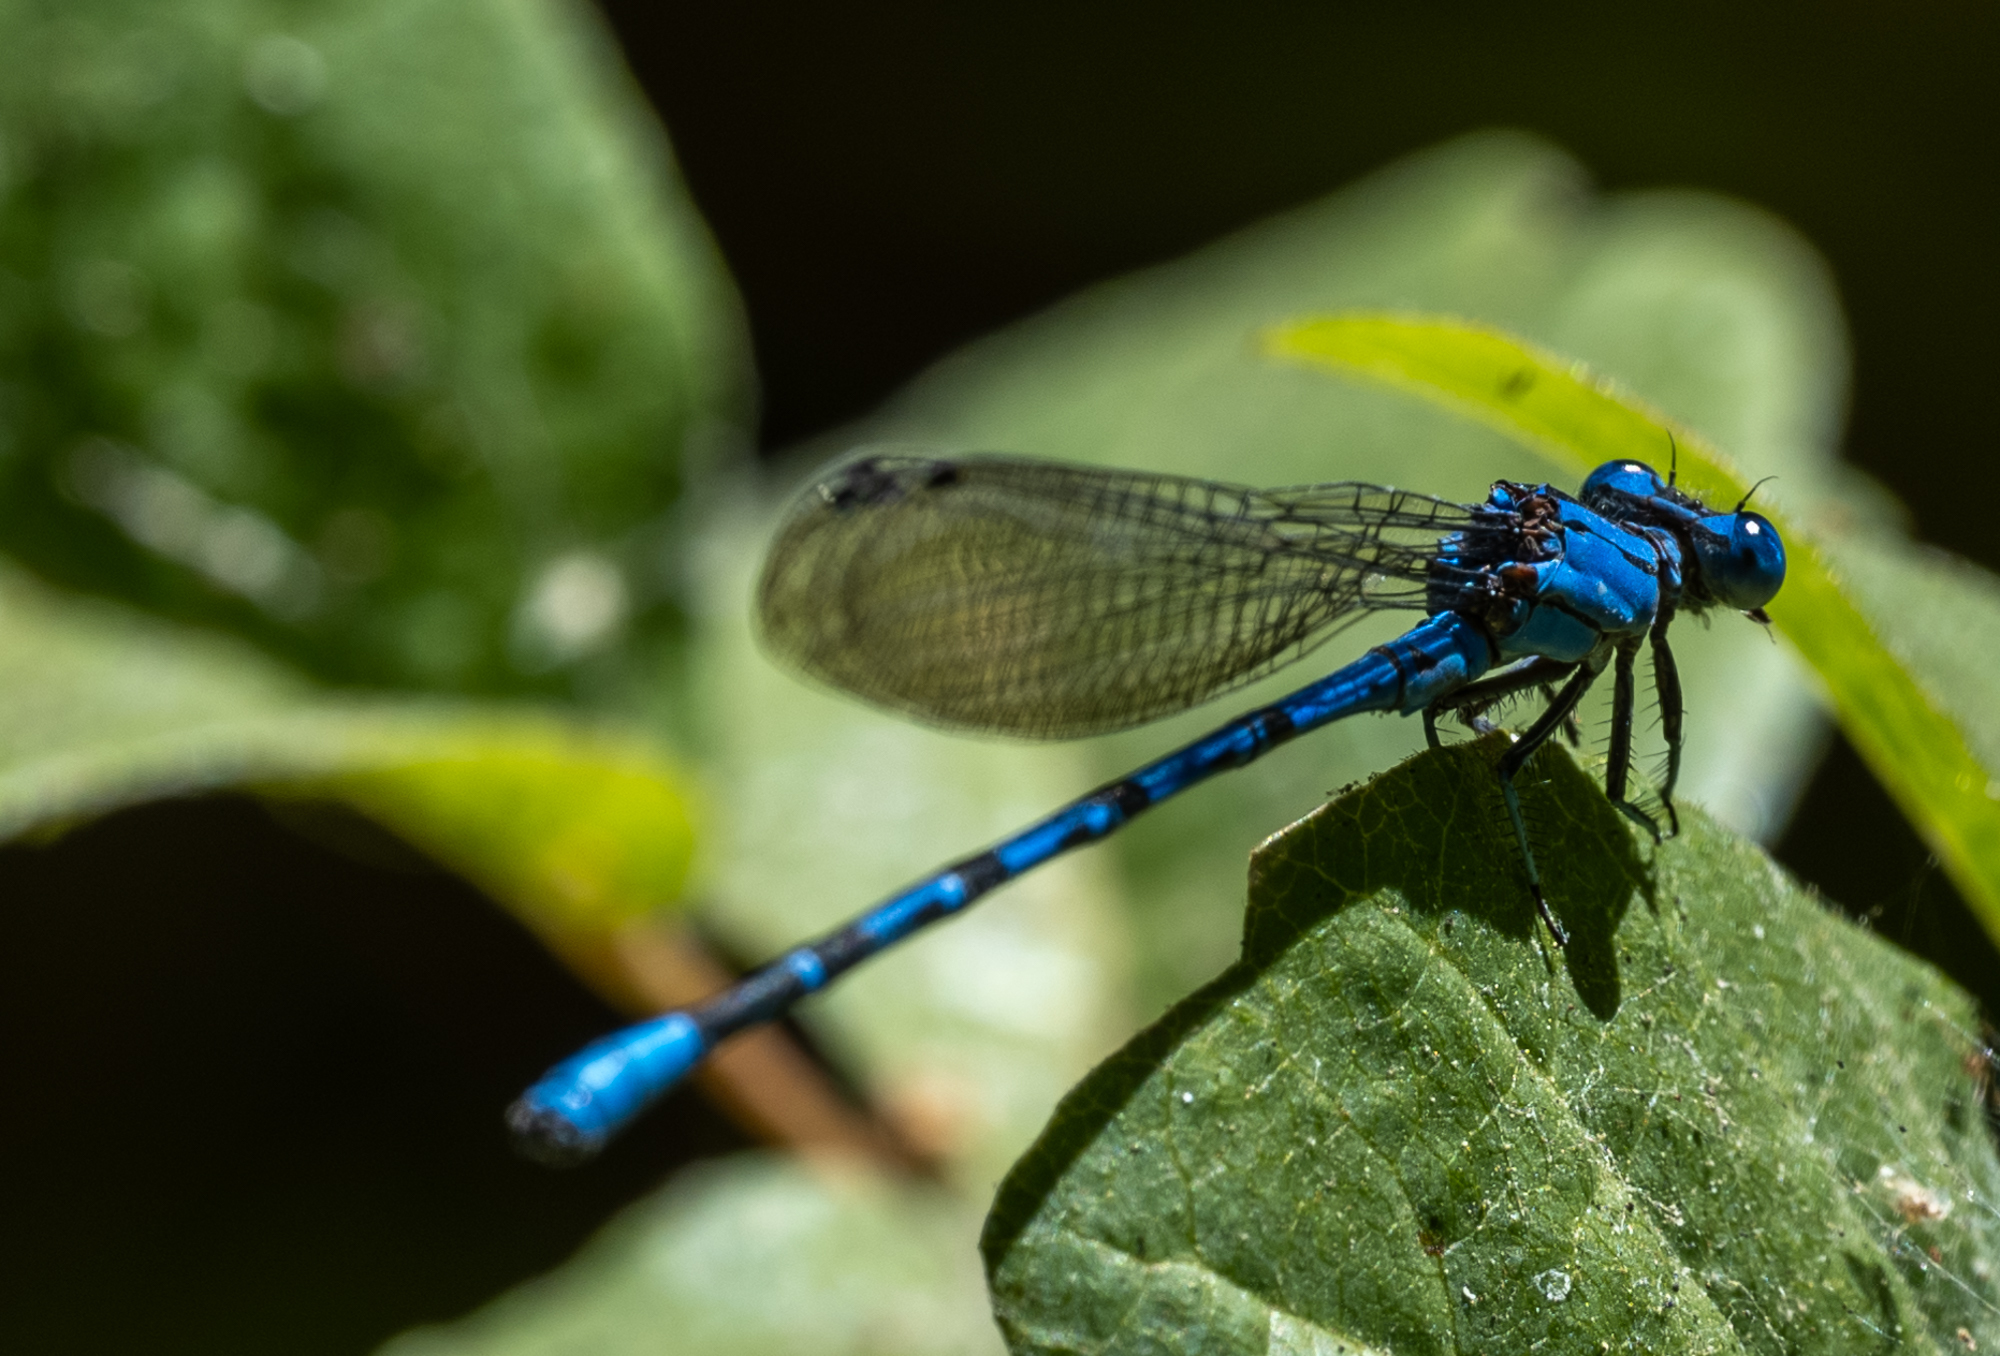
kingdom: Animalia
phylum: Arthropoda
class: Insecta
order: Odonata
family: Coenagrionidae
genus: Argia
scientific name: Argia vivida
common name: Vivid dancer
